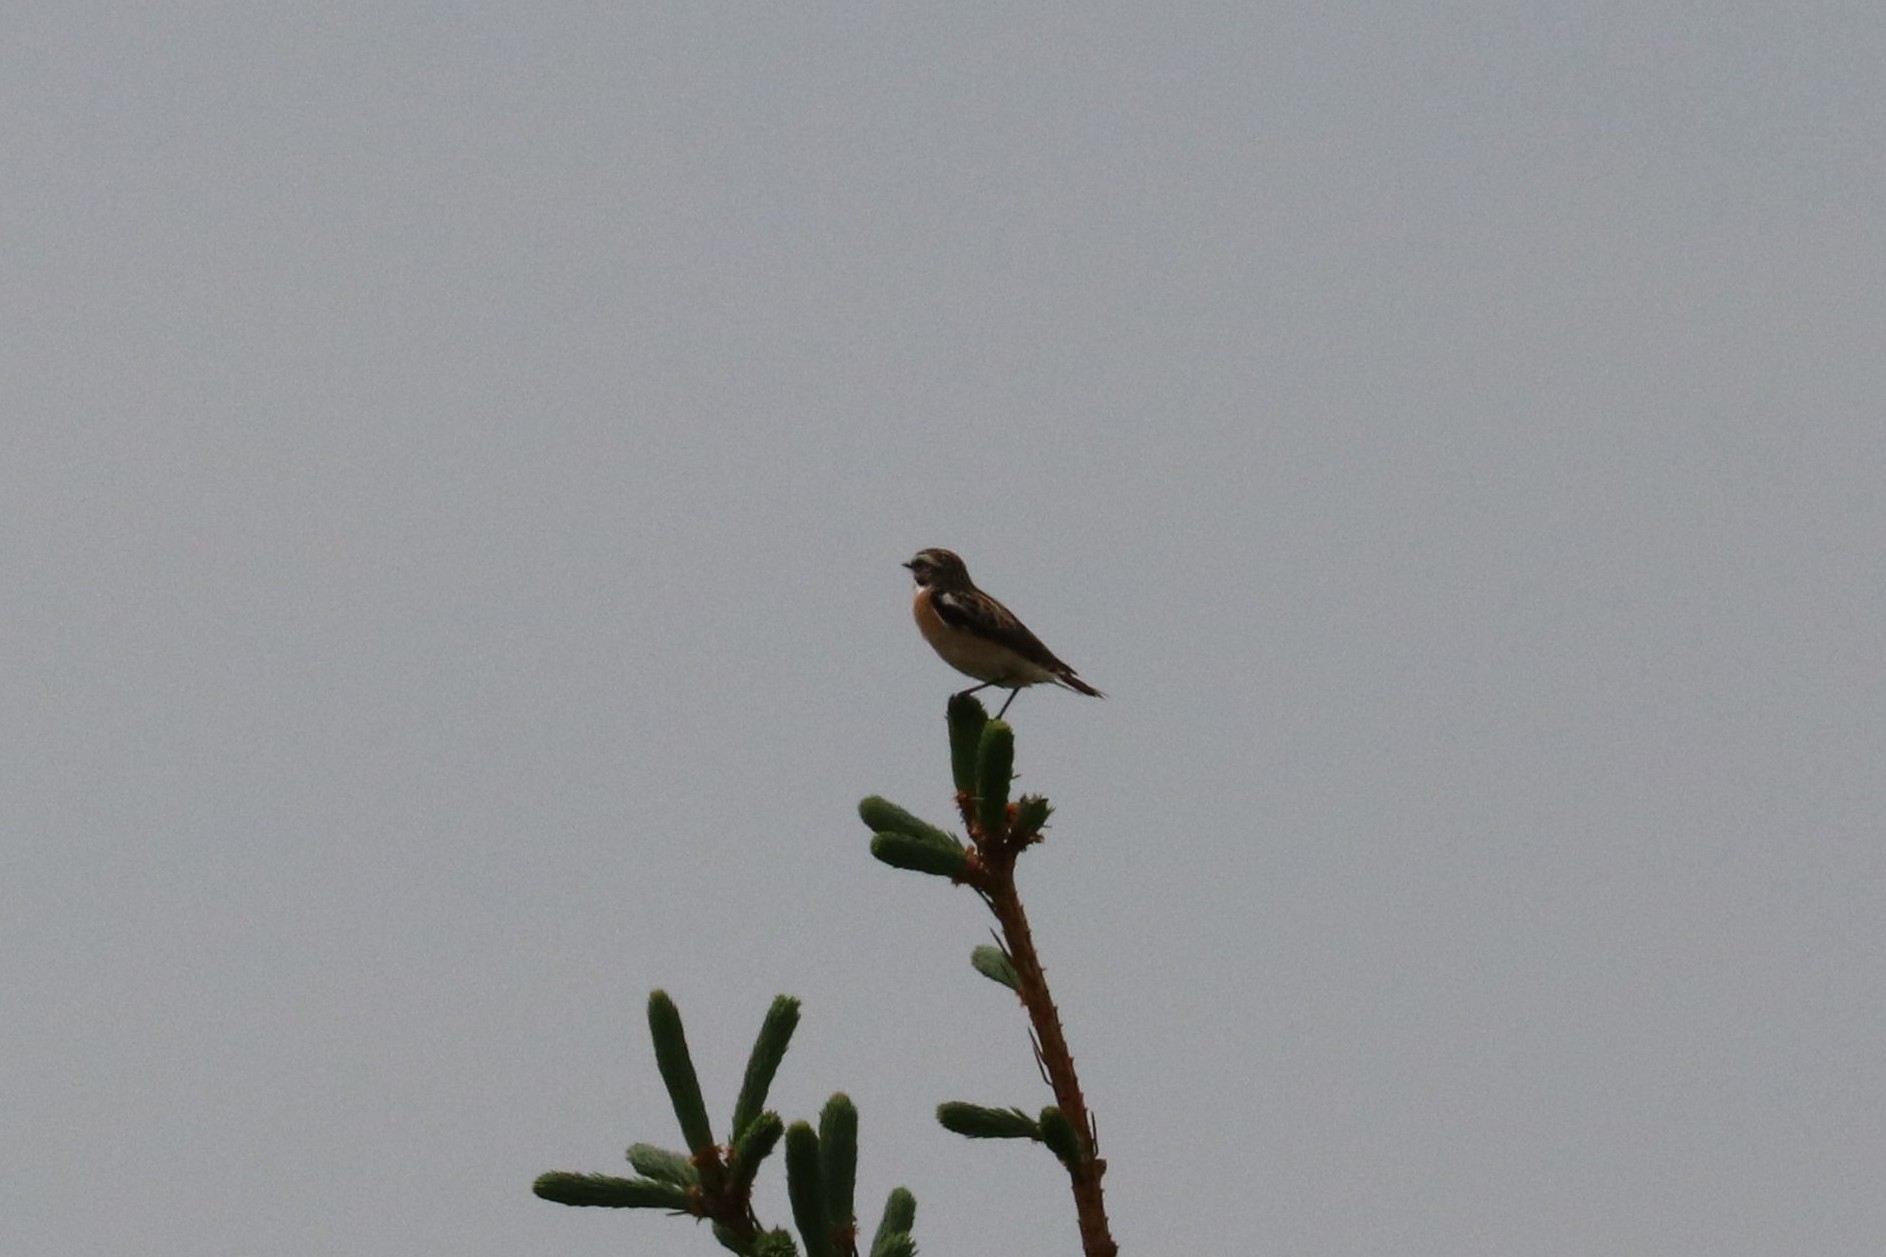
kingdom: Animalia
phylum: Chordata
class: Aves
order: Passeriformes
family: Muscicapidae
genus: Saxicola
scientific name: Saxicola rubetra
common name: Whinchat
